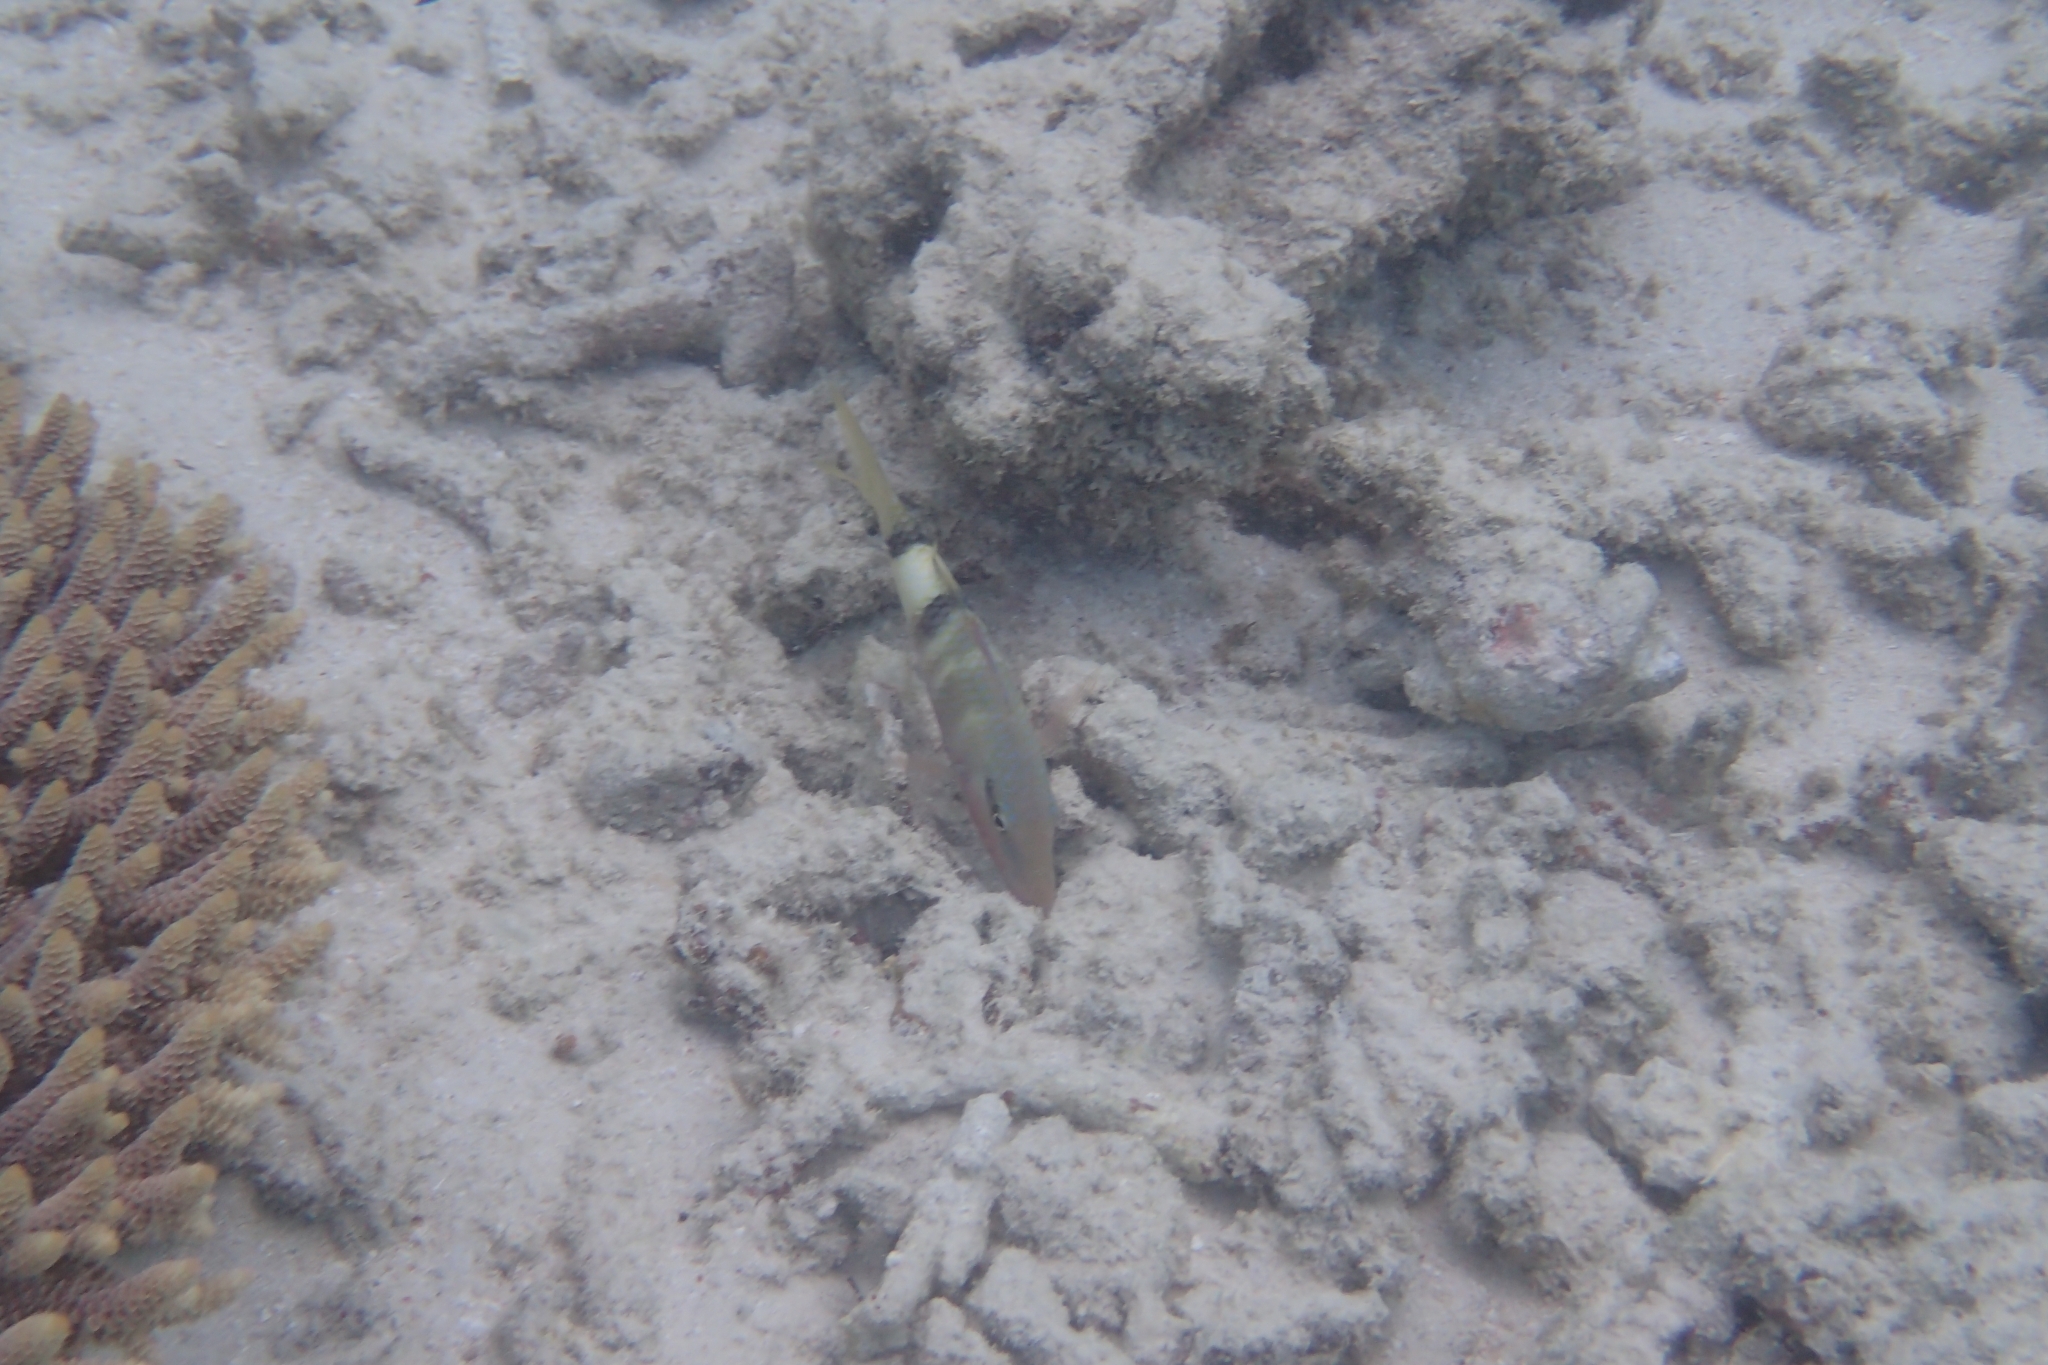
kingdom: Animalia
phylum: Chordata
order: Perciformes
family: Mullidae
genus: Parupeneus
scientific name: Parupeneus multifasciatus
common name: Manybar goatfish
